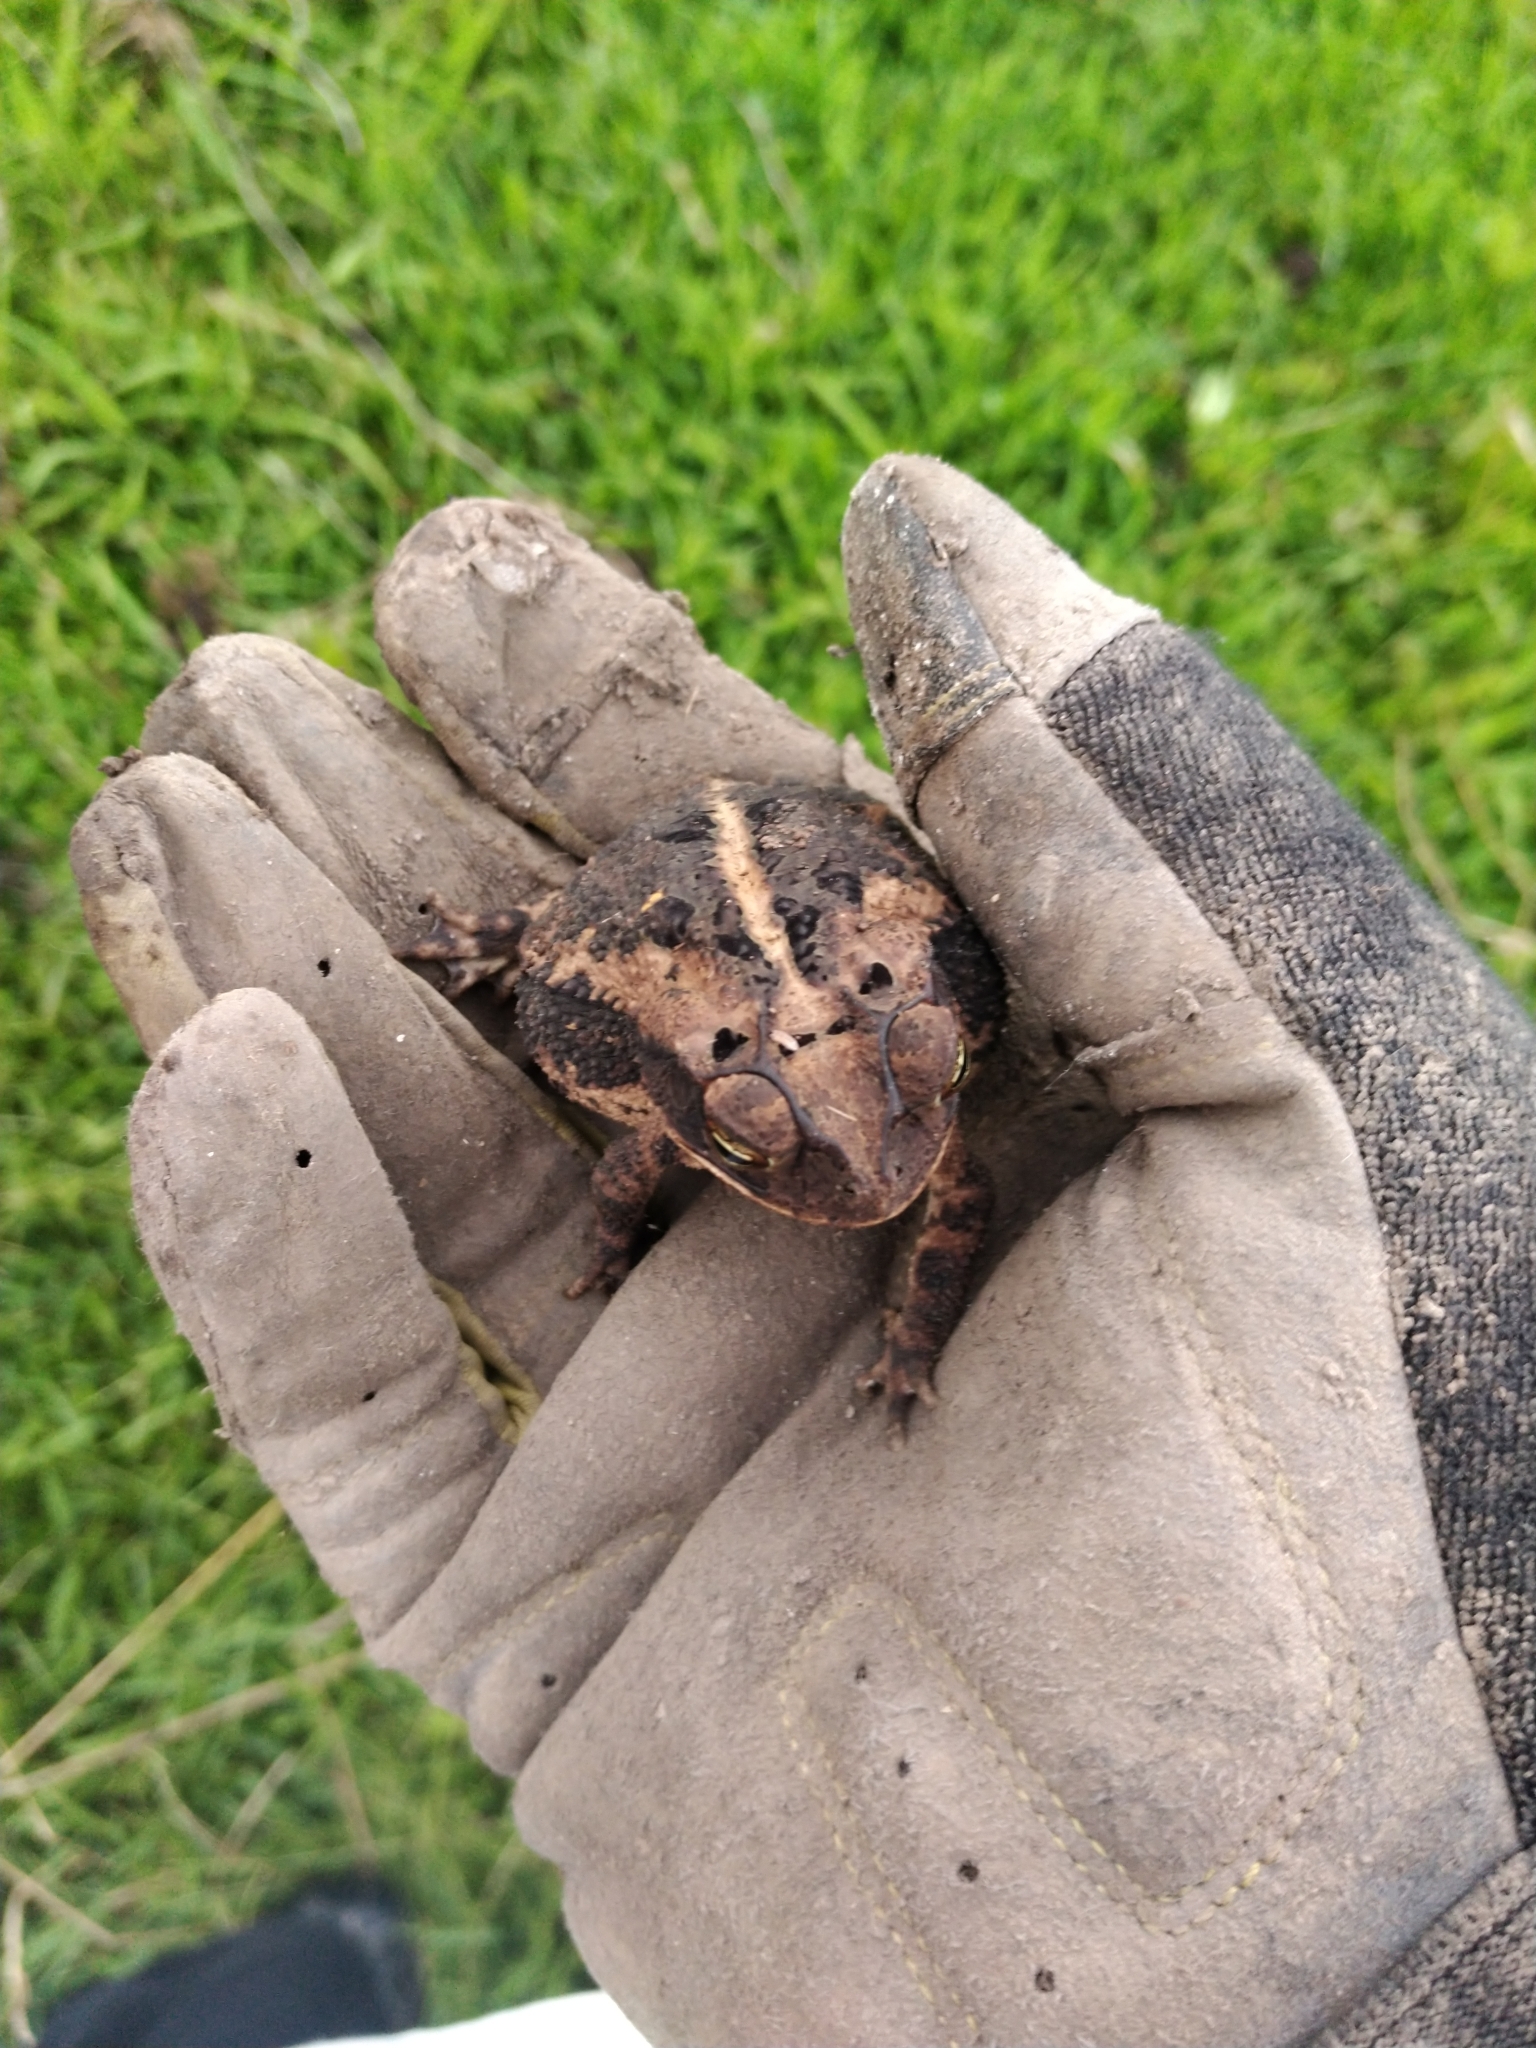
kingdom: Animalia
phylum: Chordata
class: Amphibia
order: Anura
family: Bufonidae
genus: Incilius
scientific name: Incilius nebulifer
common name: Gulf coast toad
